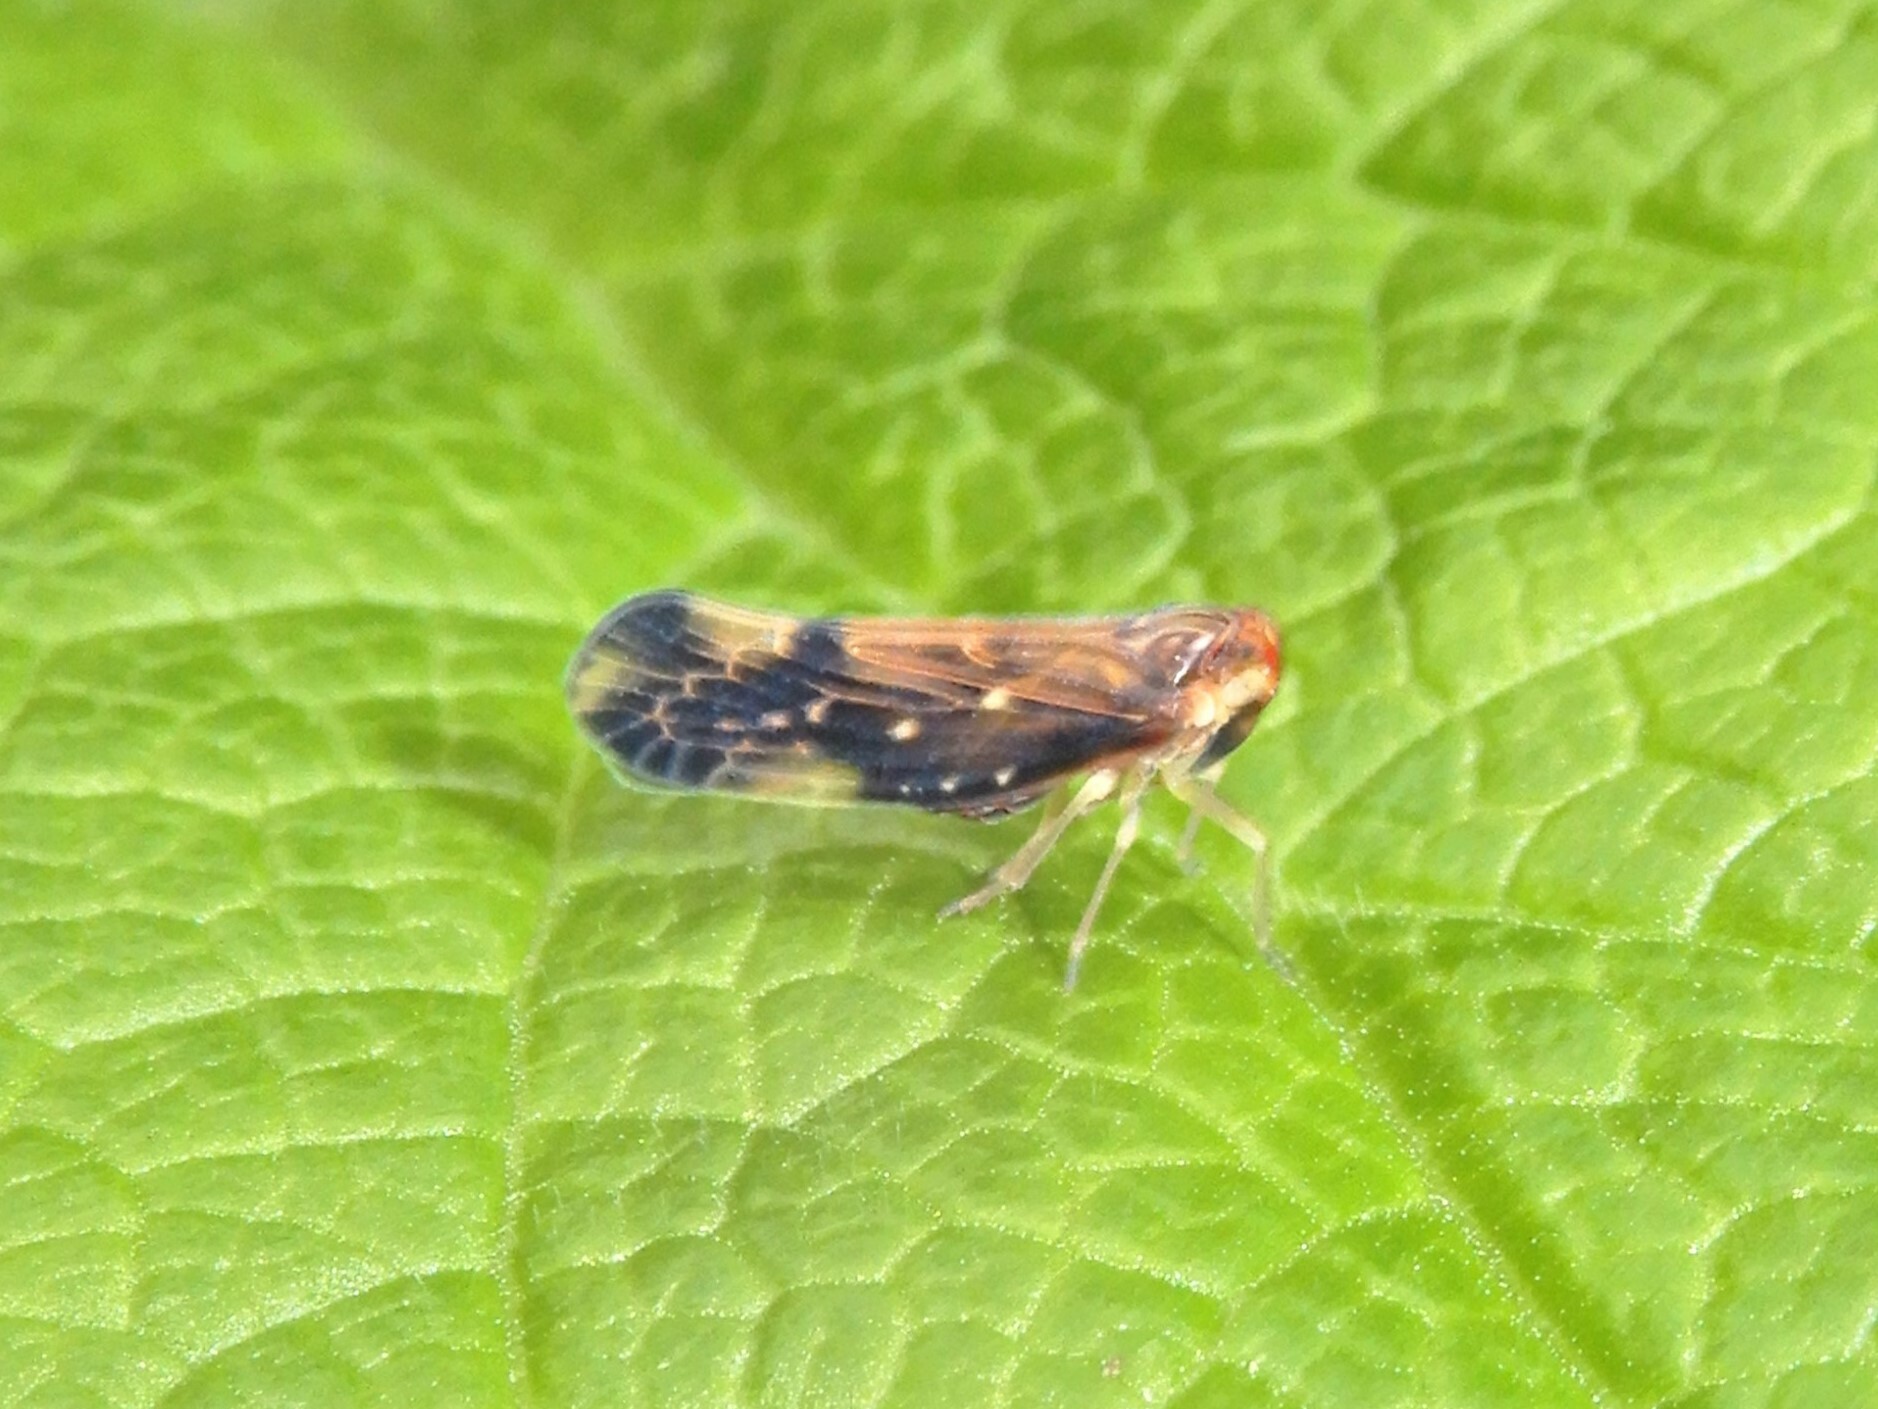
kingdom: Animalia
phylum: Arthropoda
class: Insecta
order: Hemiptera
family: Derbidae
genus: Eocenchrea
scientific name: Eocenchrea maorica
